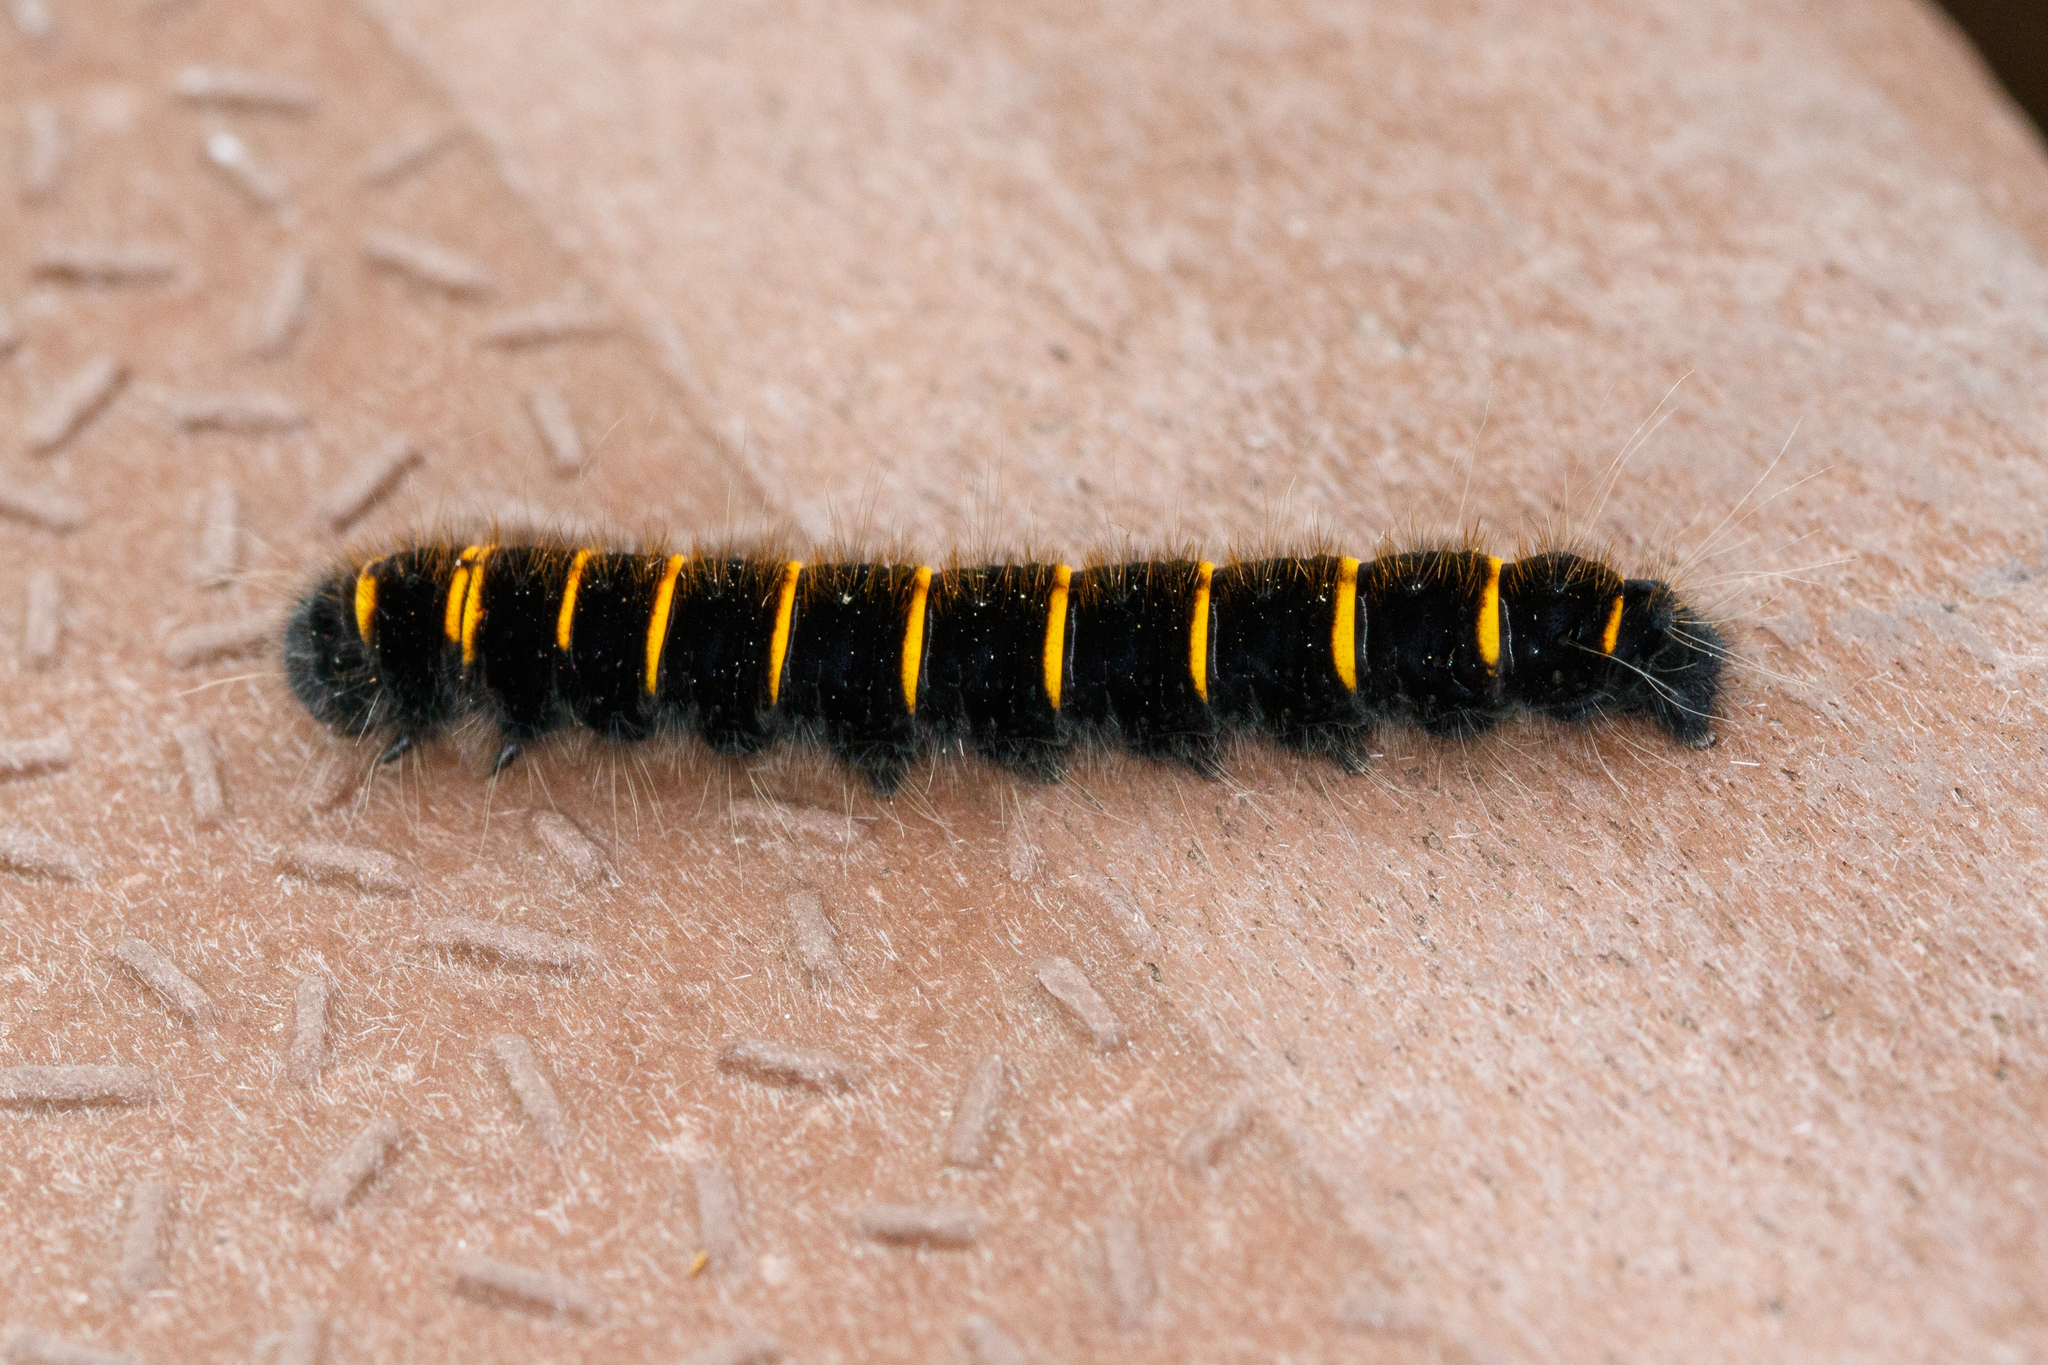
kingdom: Animalia
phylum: Arthropoda
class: Insecta
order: Lepidoptera
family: Lasiocampidae
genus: Macrothylacia
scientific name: Macrothylacia rubi
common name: Fox moth
